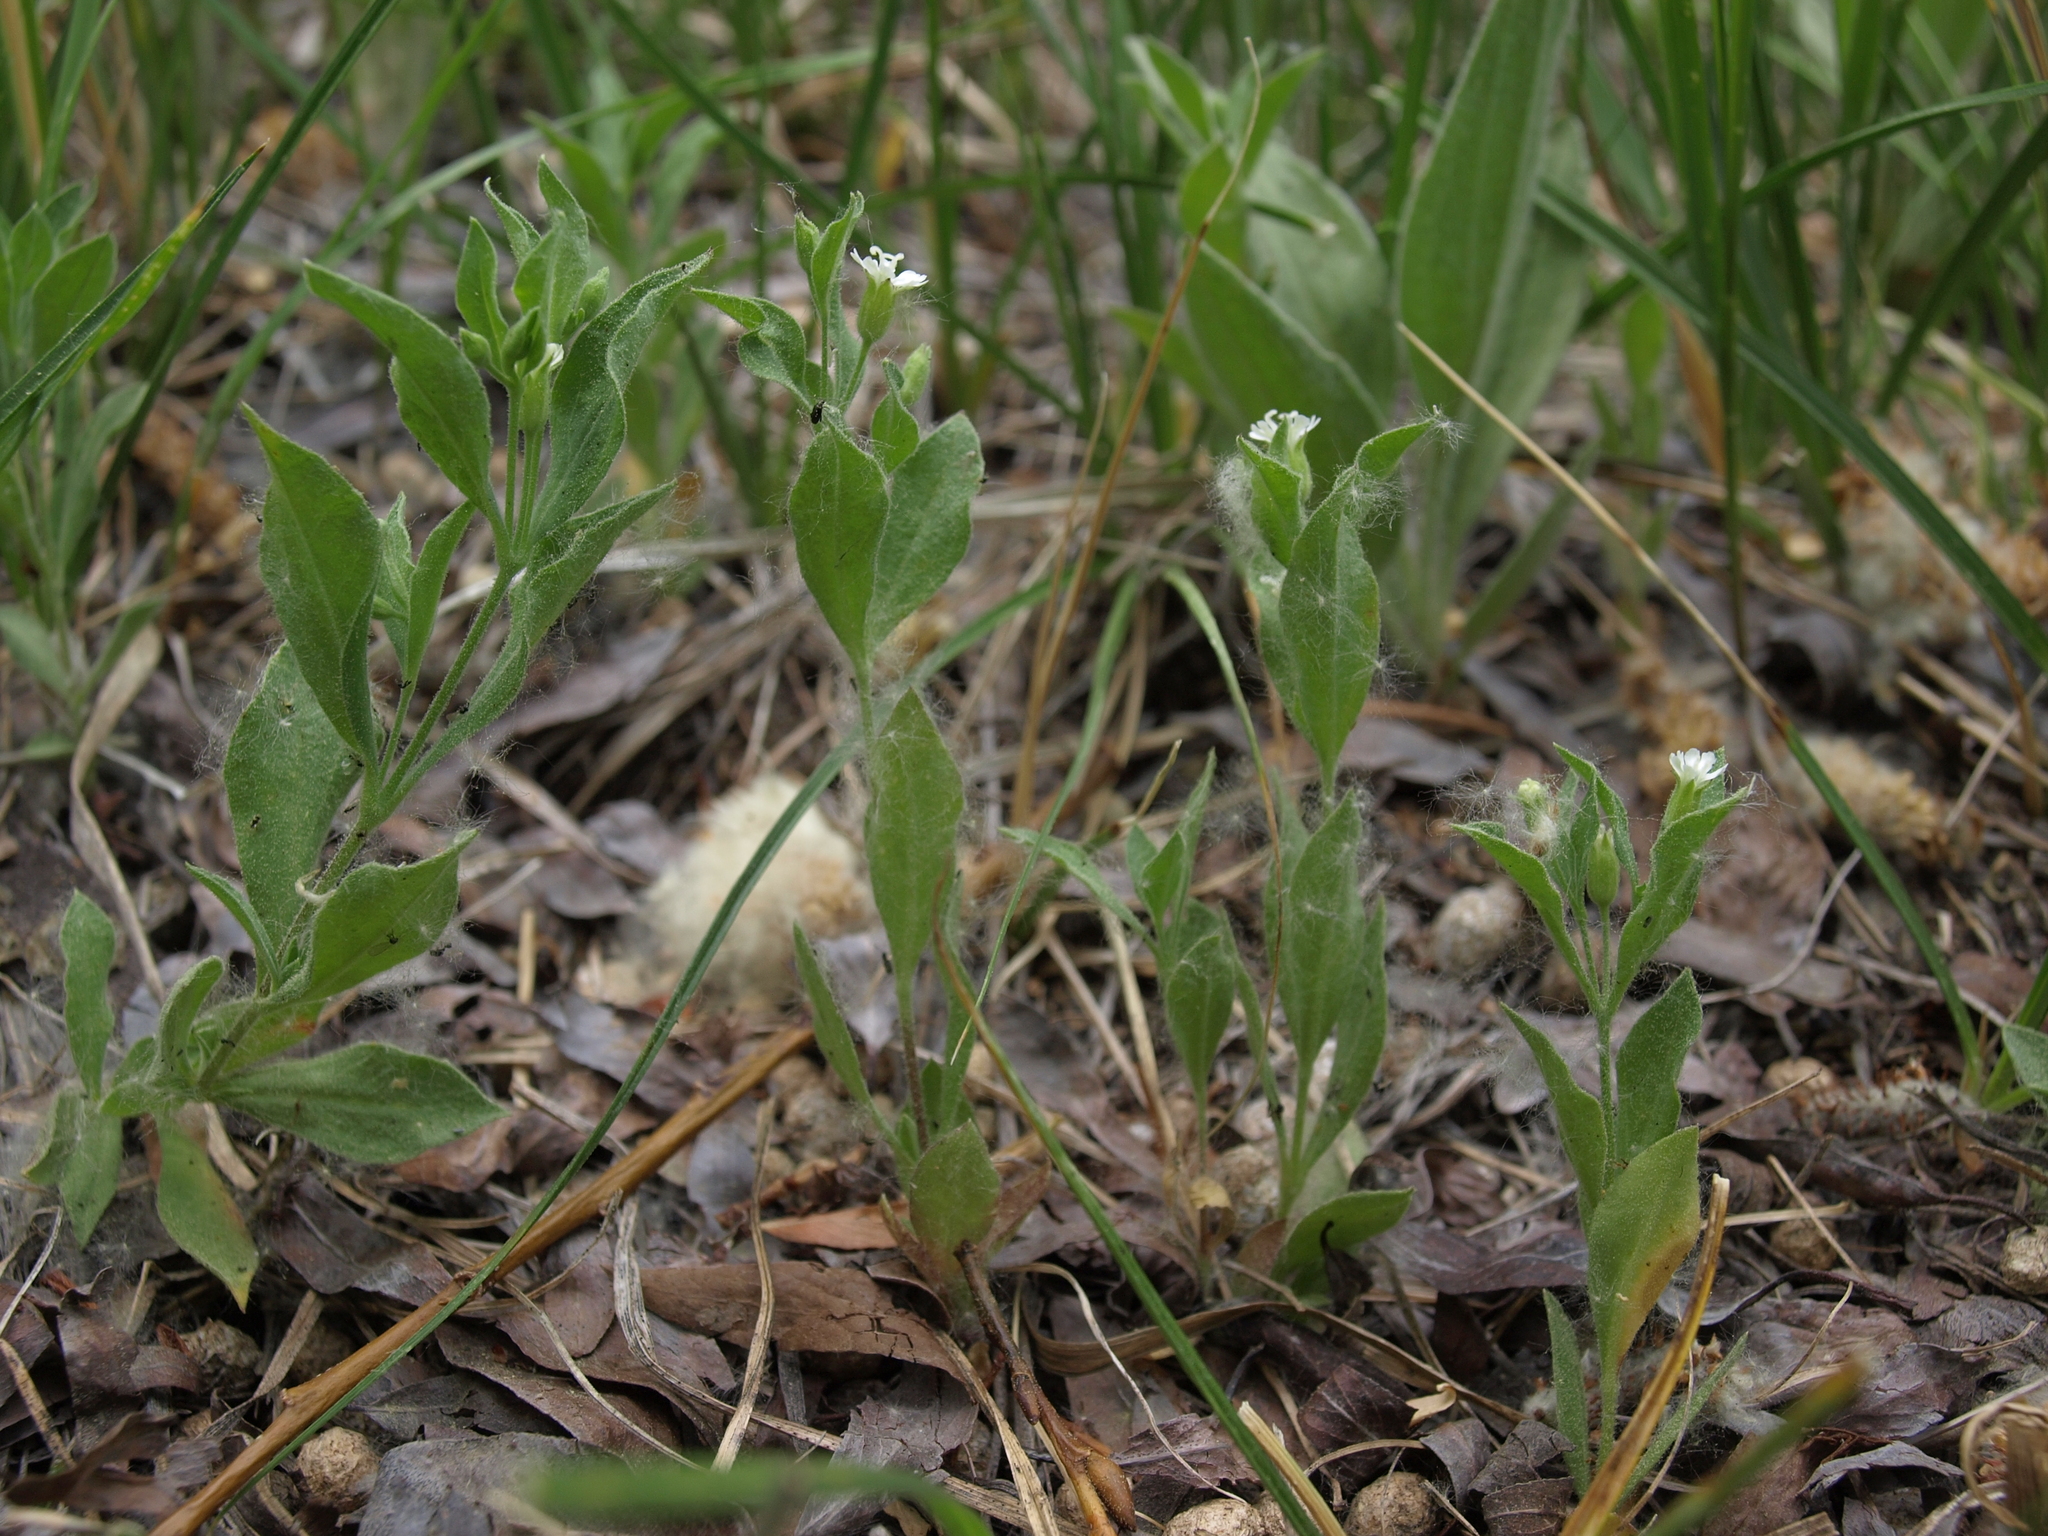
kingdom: Plantae
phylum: Tracheophyta
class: Magnoliopsida
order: Caryophyllales
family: Caryophyllaceae
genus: Silene
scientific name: Silene menziesii
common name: Menzies's catchfly
